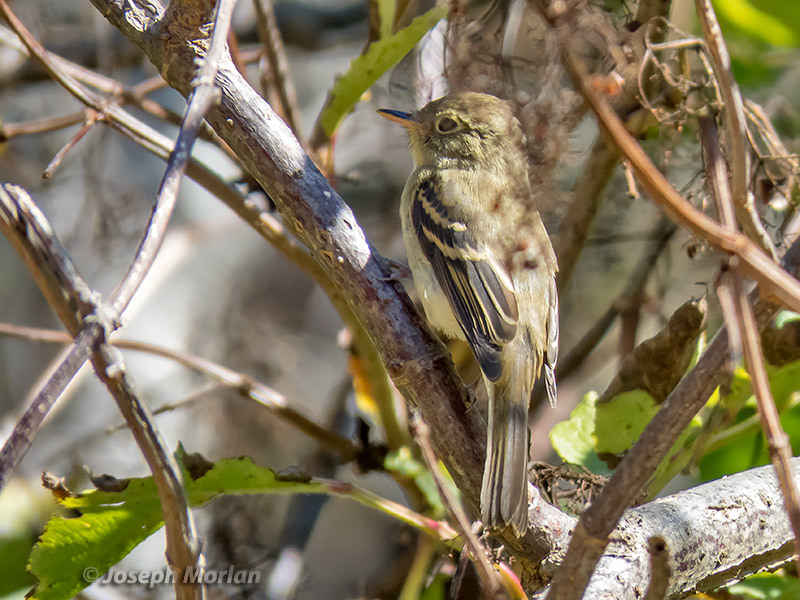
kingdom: Animalia
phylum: Chordata
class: Aves
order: Passeriformes
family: Tyrannidae
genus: Empidonax
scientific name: Empidonax difficilis
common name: Pacific-slope flycatcher
